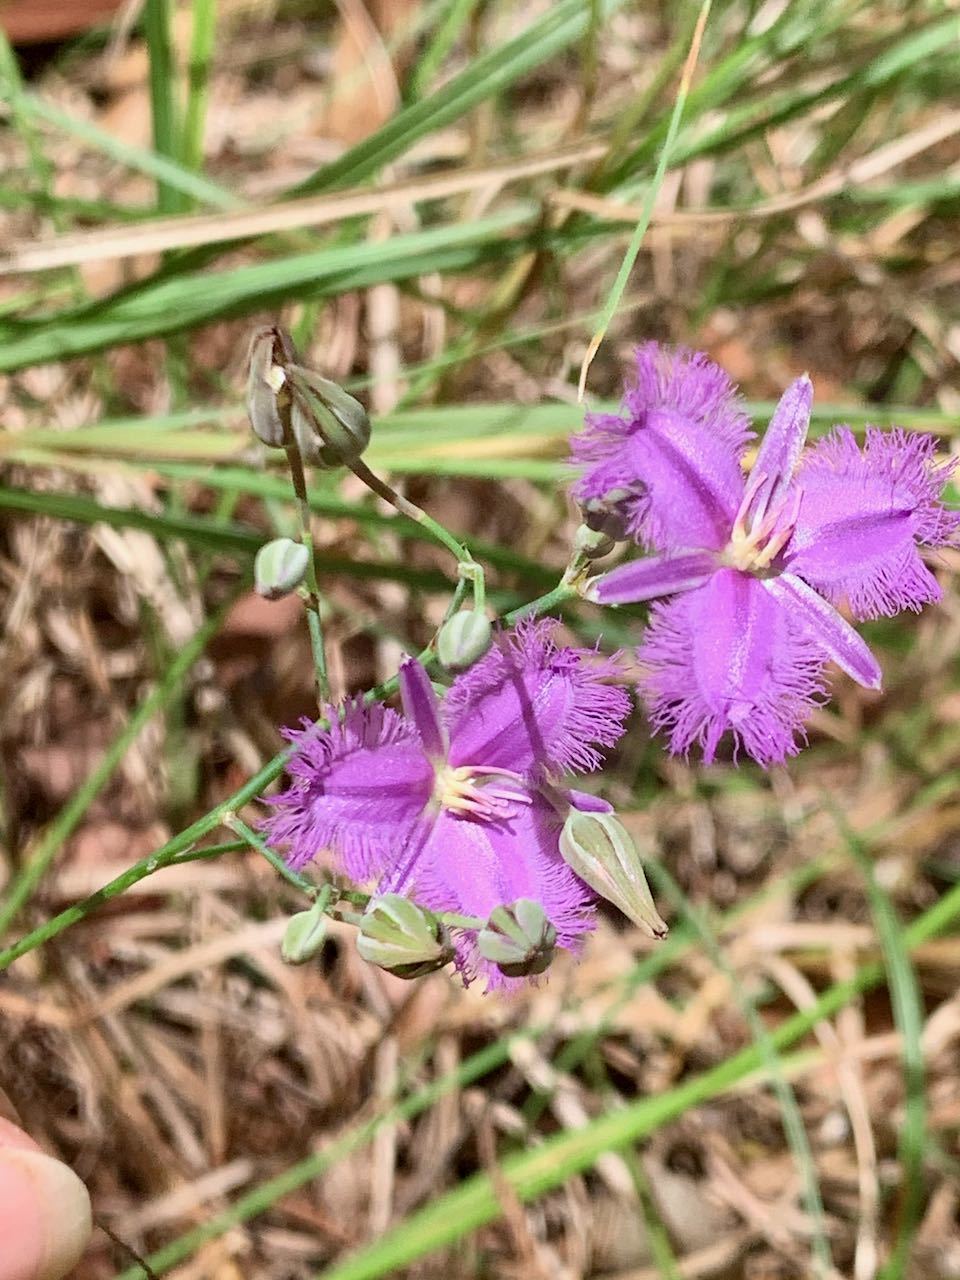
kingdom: Plantae
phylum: Tracheophyta
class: Liliopsida
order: Asparagales
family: Asparagaceae
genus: Thysanotus
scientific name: Thysanotus tuberosus
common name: Common fringed-lily
